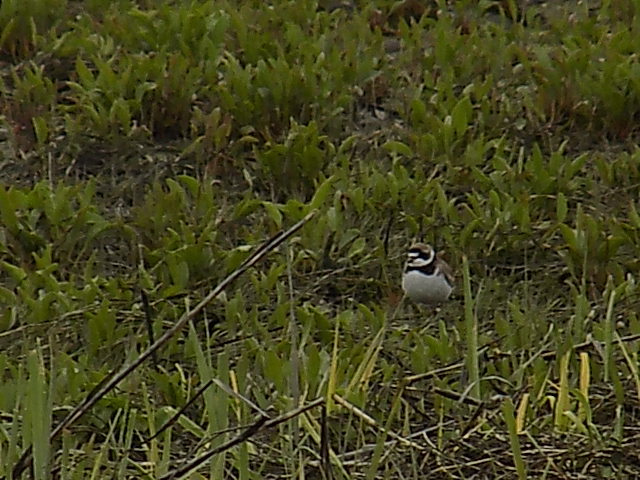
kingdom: Animalia
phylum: Chordata
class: Aves
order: Charadriiformes
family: Charadriidae
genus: Charadrius
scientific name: Charadrius semipalmatus
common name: Semipalmated plover
